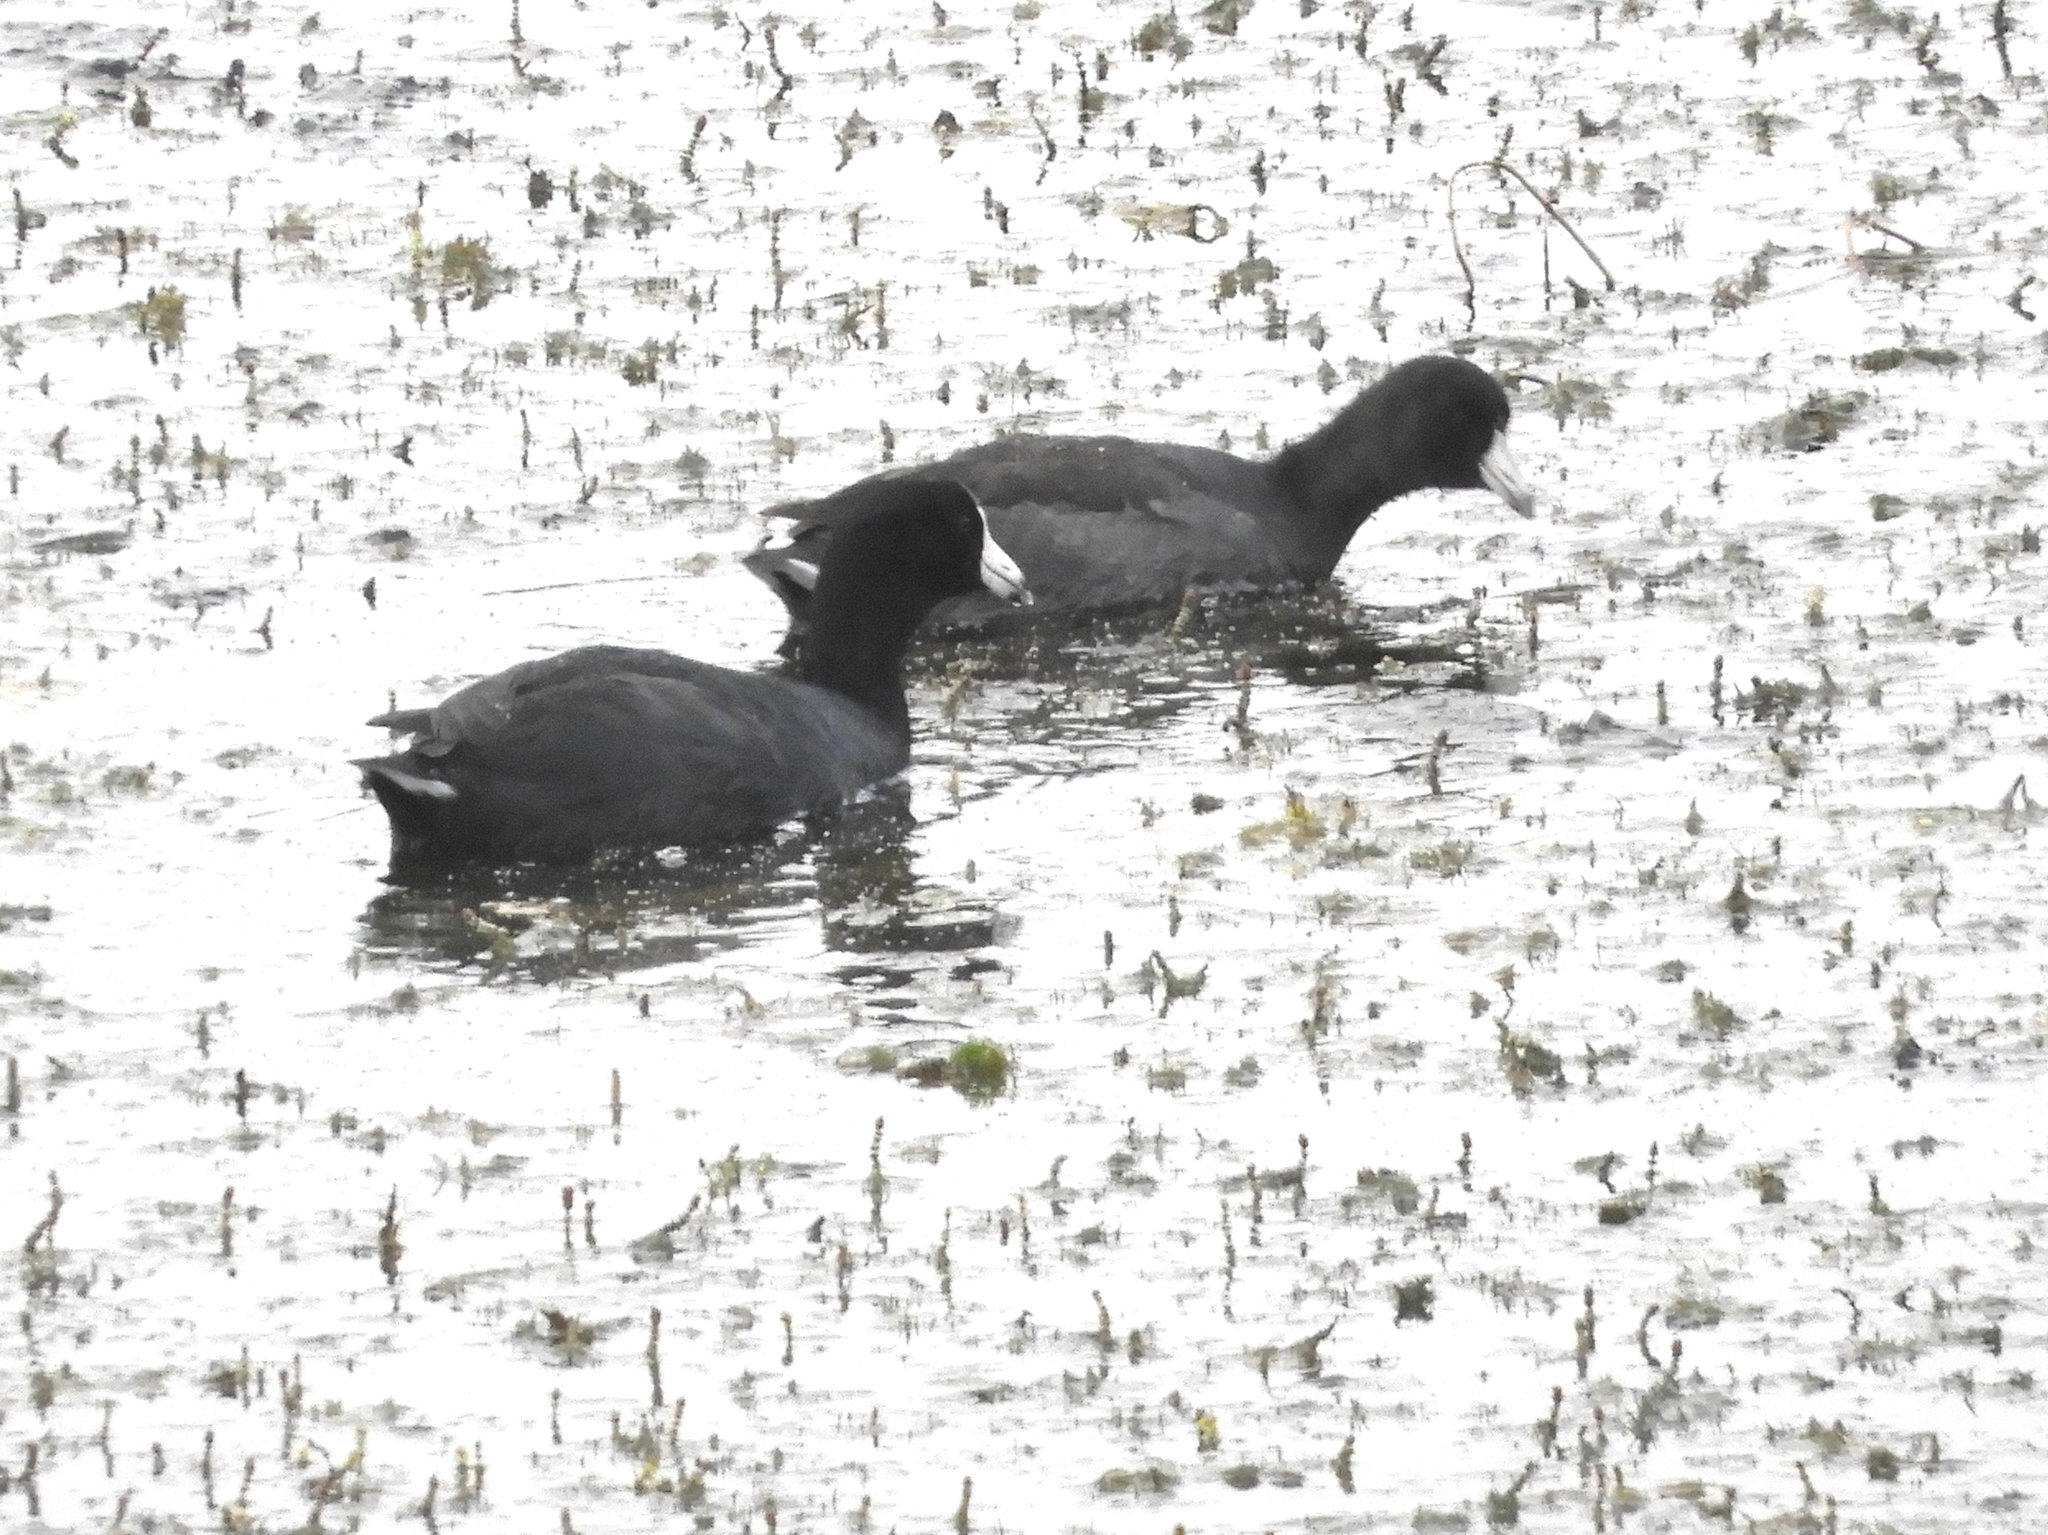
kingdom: Animalia
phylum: Chordata
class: Aves
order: Gruiformes
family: Rallidae
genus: Fulica
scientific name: Fulica americana
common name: American coot
